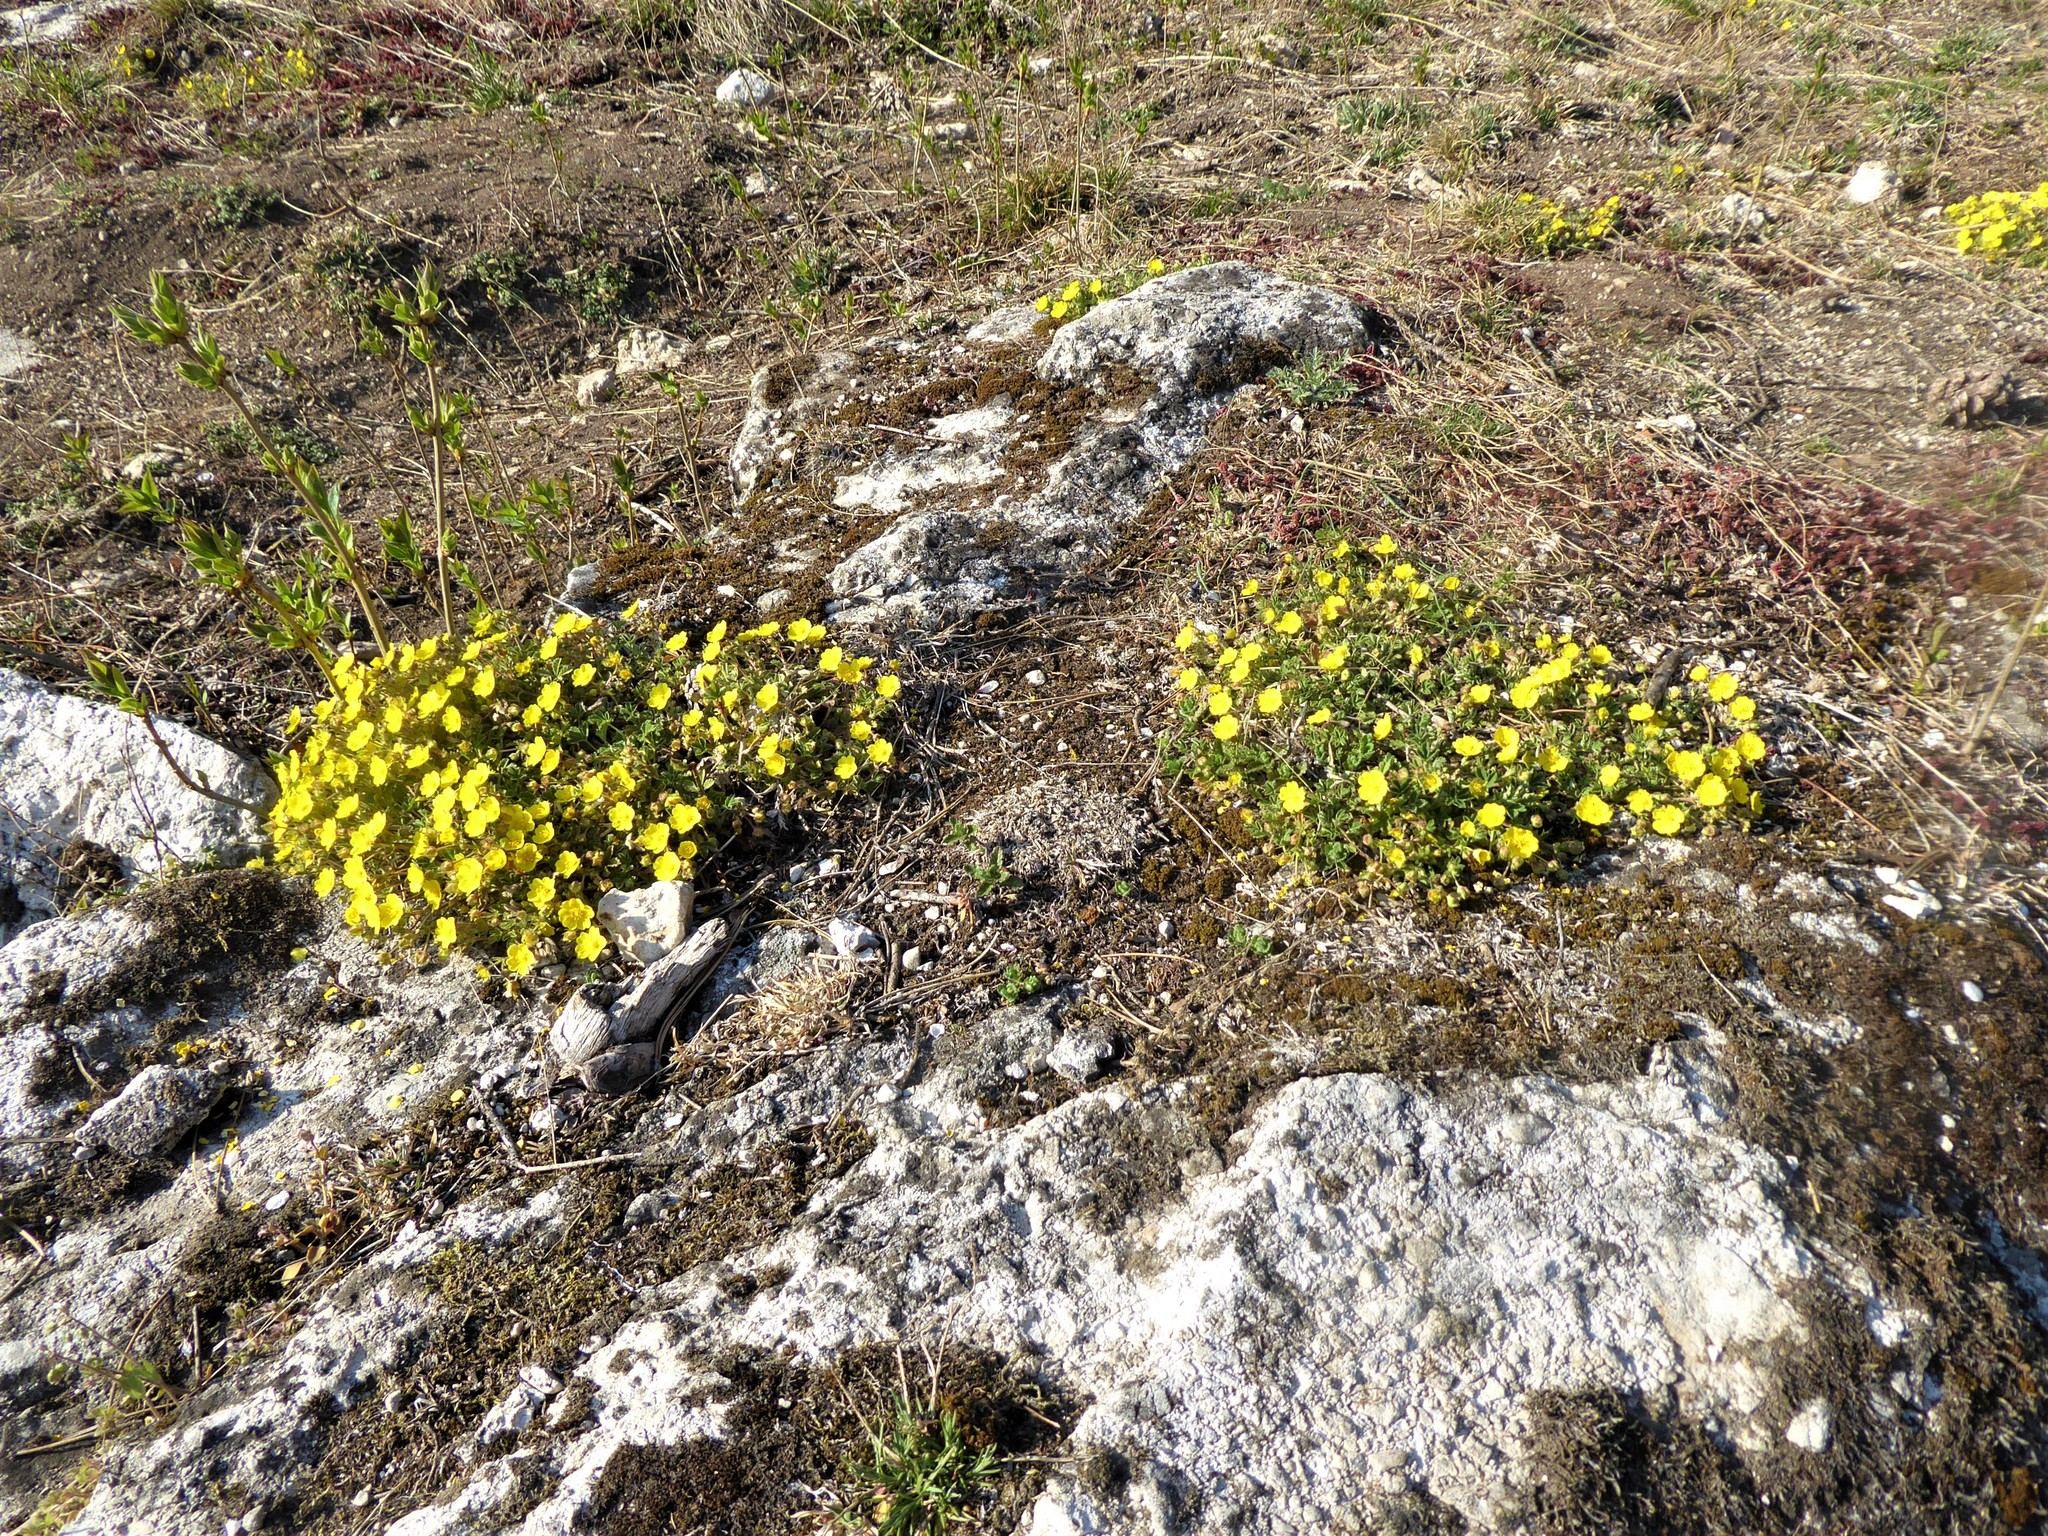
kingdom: Plantae
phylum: Tracheophyta
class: Magnoliopsida
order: Rosales
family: Rosaceae
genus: Potentilla
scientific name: Potentilla incana
